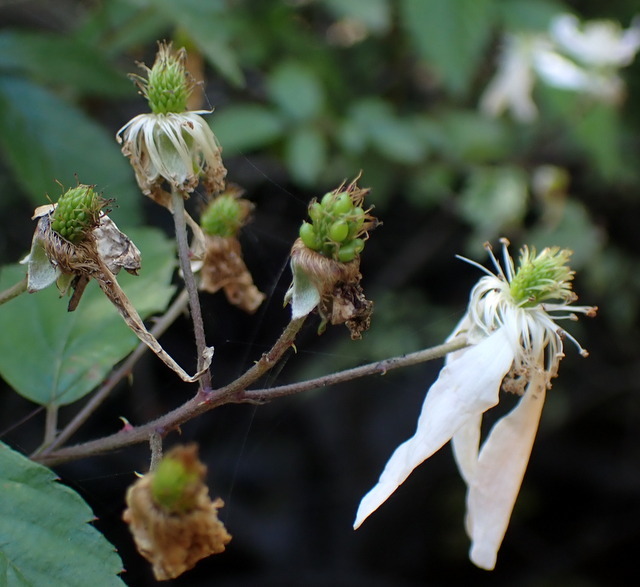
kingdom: Plantae
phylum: Tracheophyta
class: Magnoliopsida
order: Rosales
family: Rosaceae
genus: Rubus
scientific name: Rubus pensilvanicus
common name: Pennsylvania blackberry
